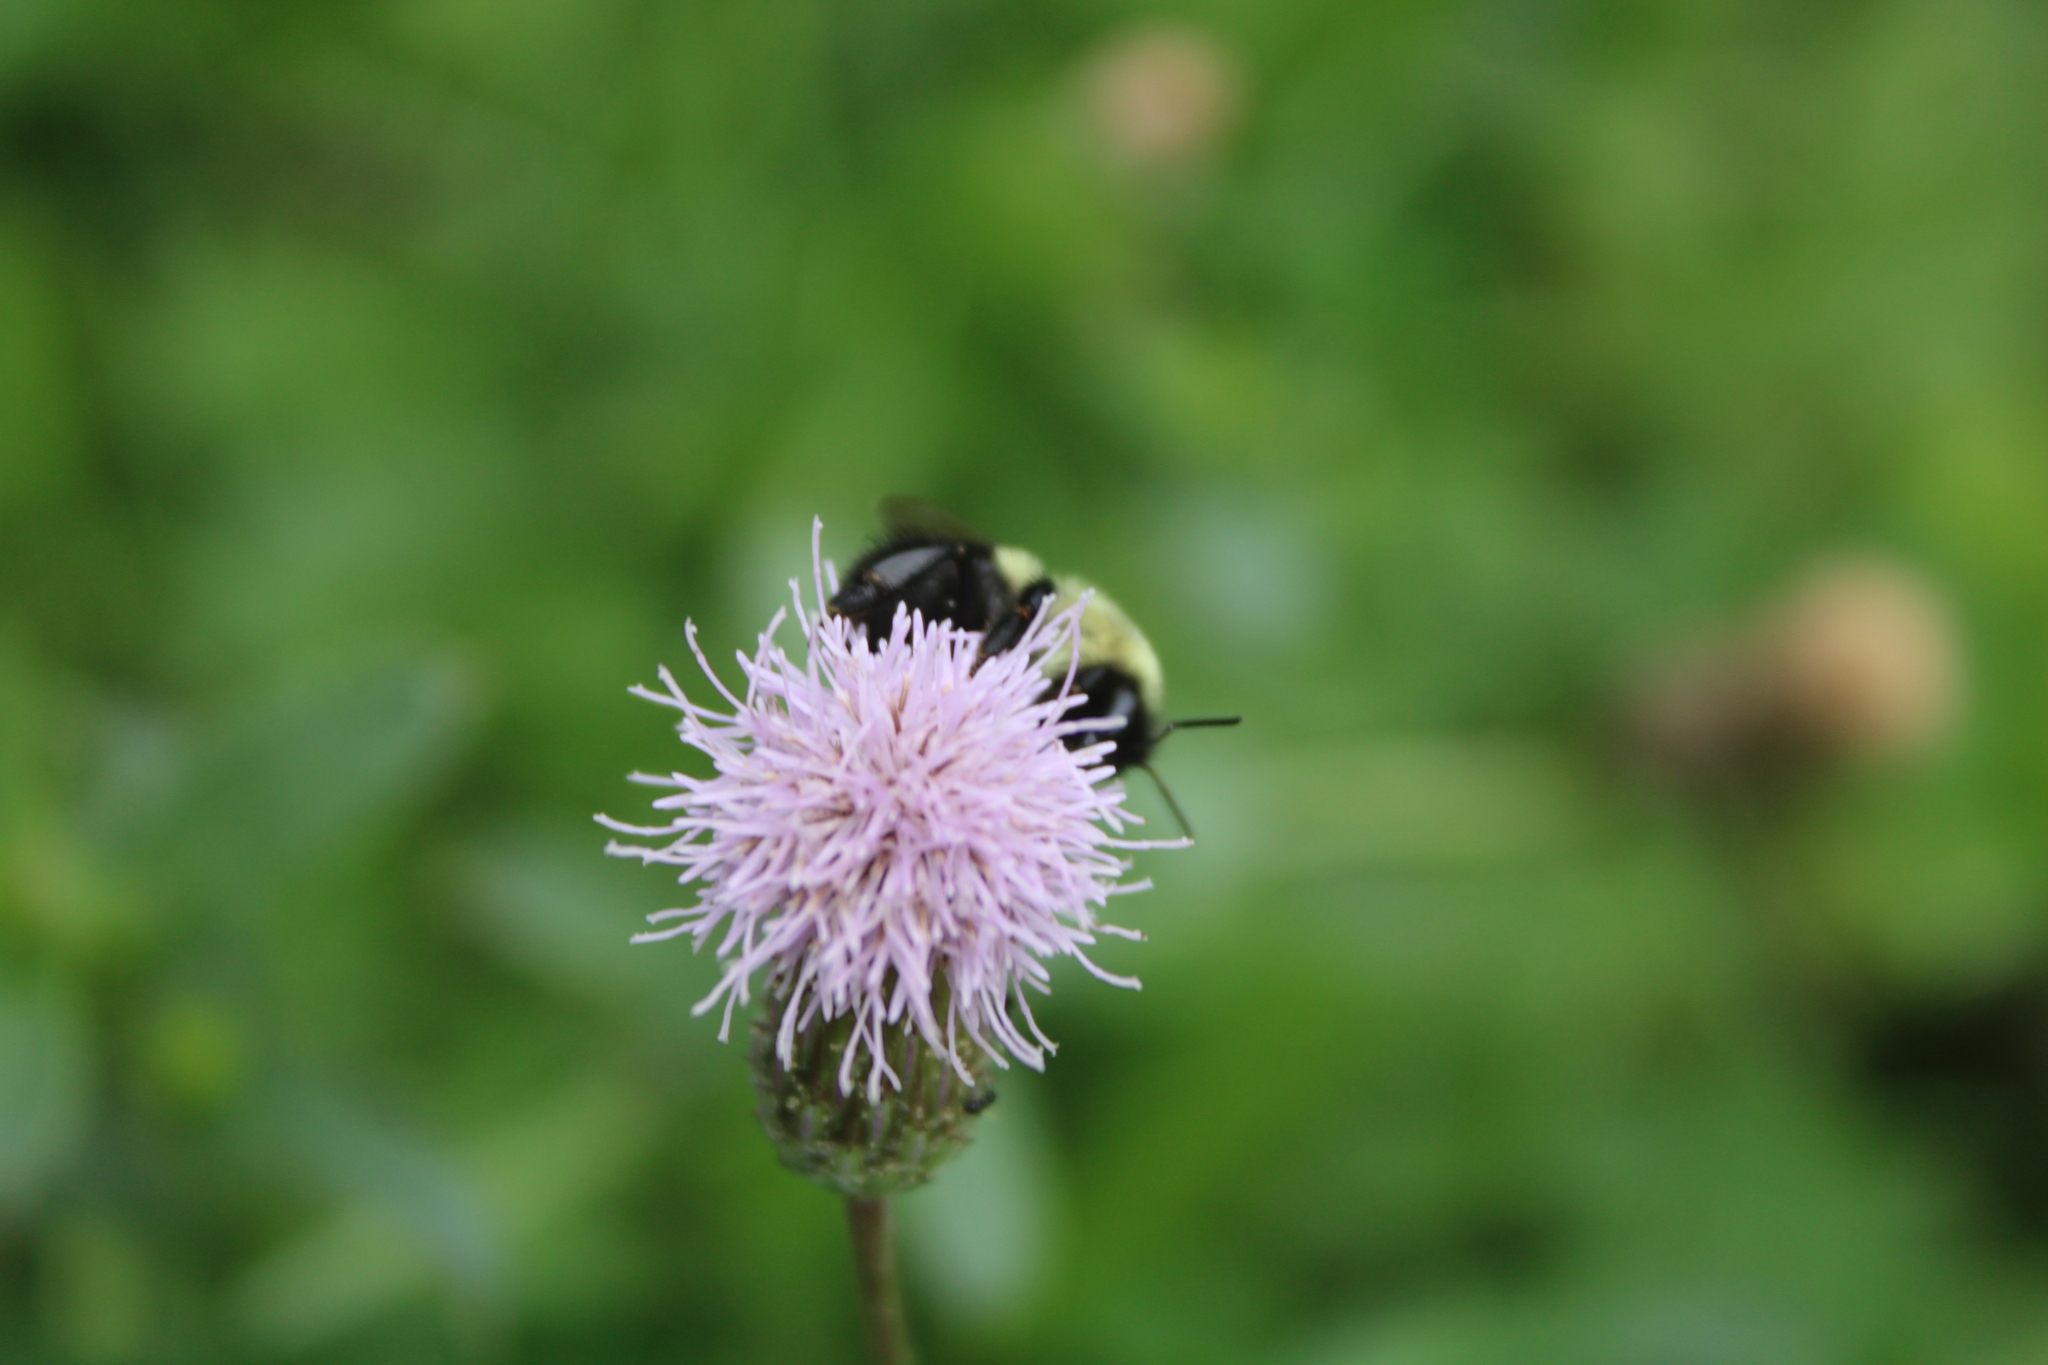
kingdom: Animalia
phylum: Arthropoda
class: Insecta
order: Hymenoptera
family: Apidae
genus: Bombus
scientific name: Bombus impatiens
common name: Common eastern bumble bee
